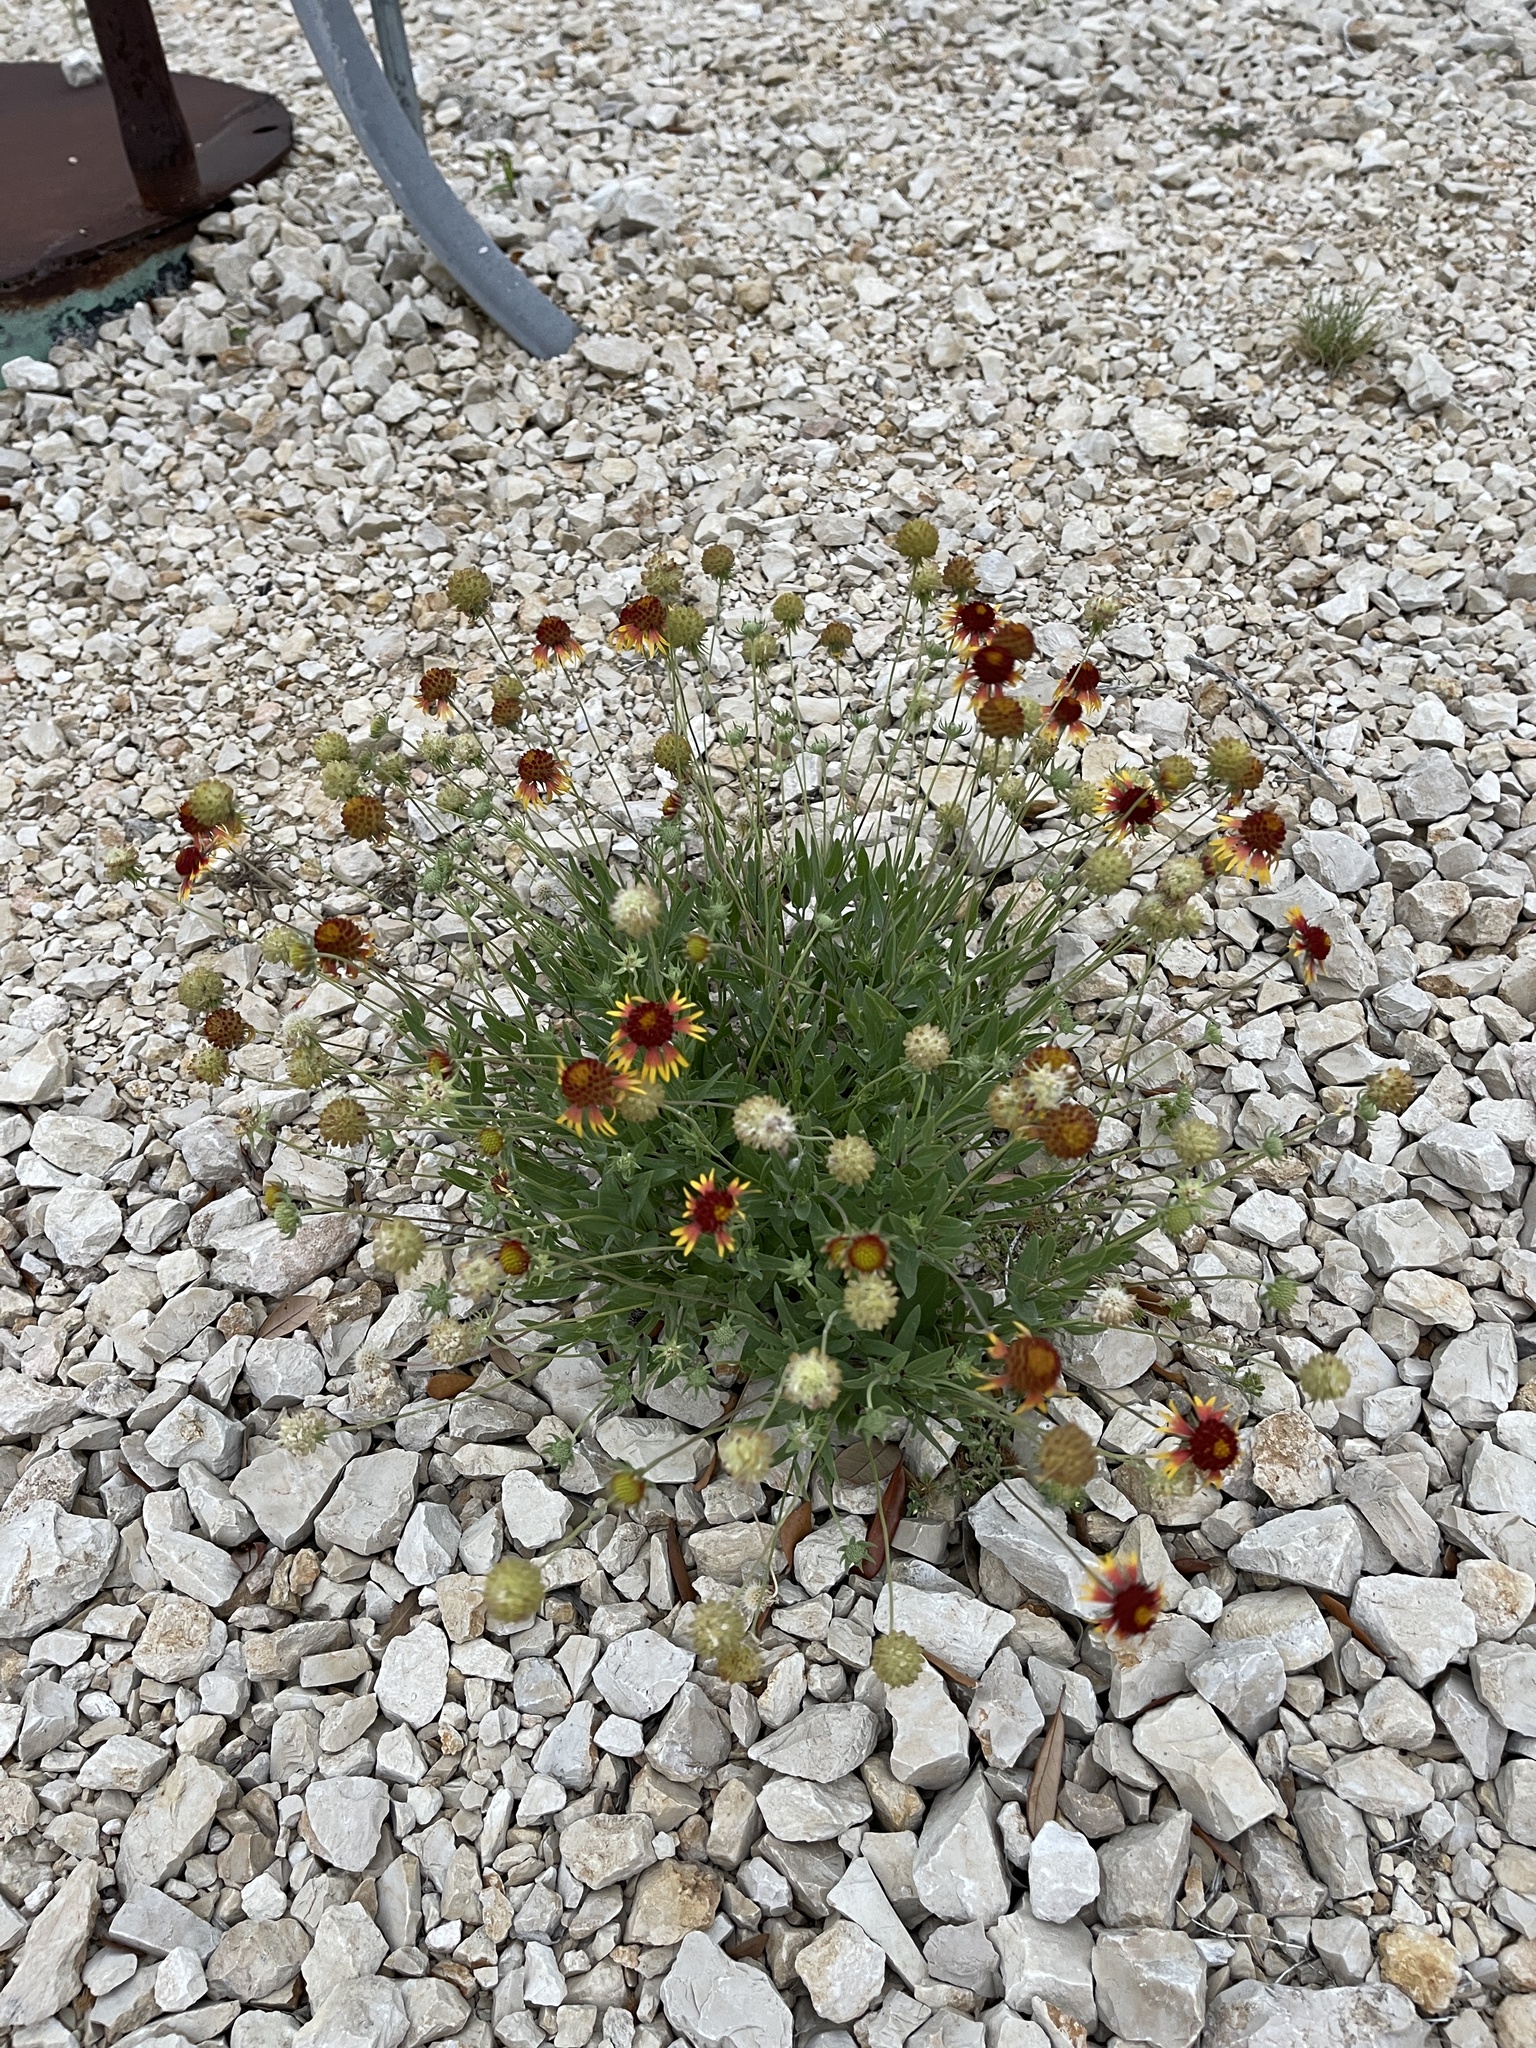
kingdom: Plantae
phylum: Tracheophyta
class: Magnoliopsida
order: Asterales
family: Asteraceae
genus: Gaillardia
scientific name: Gaillardia pulchella
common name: Firewheel
